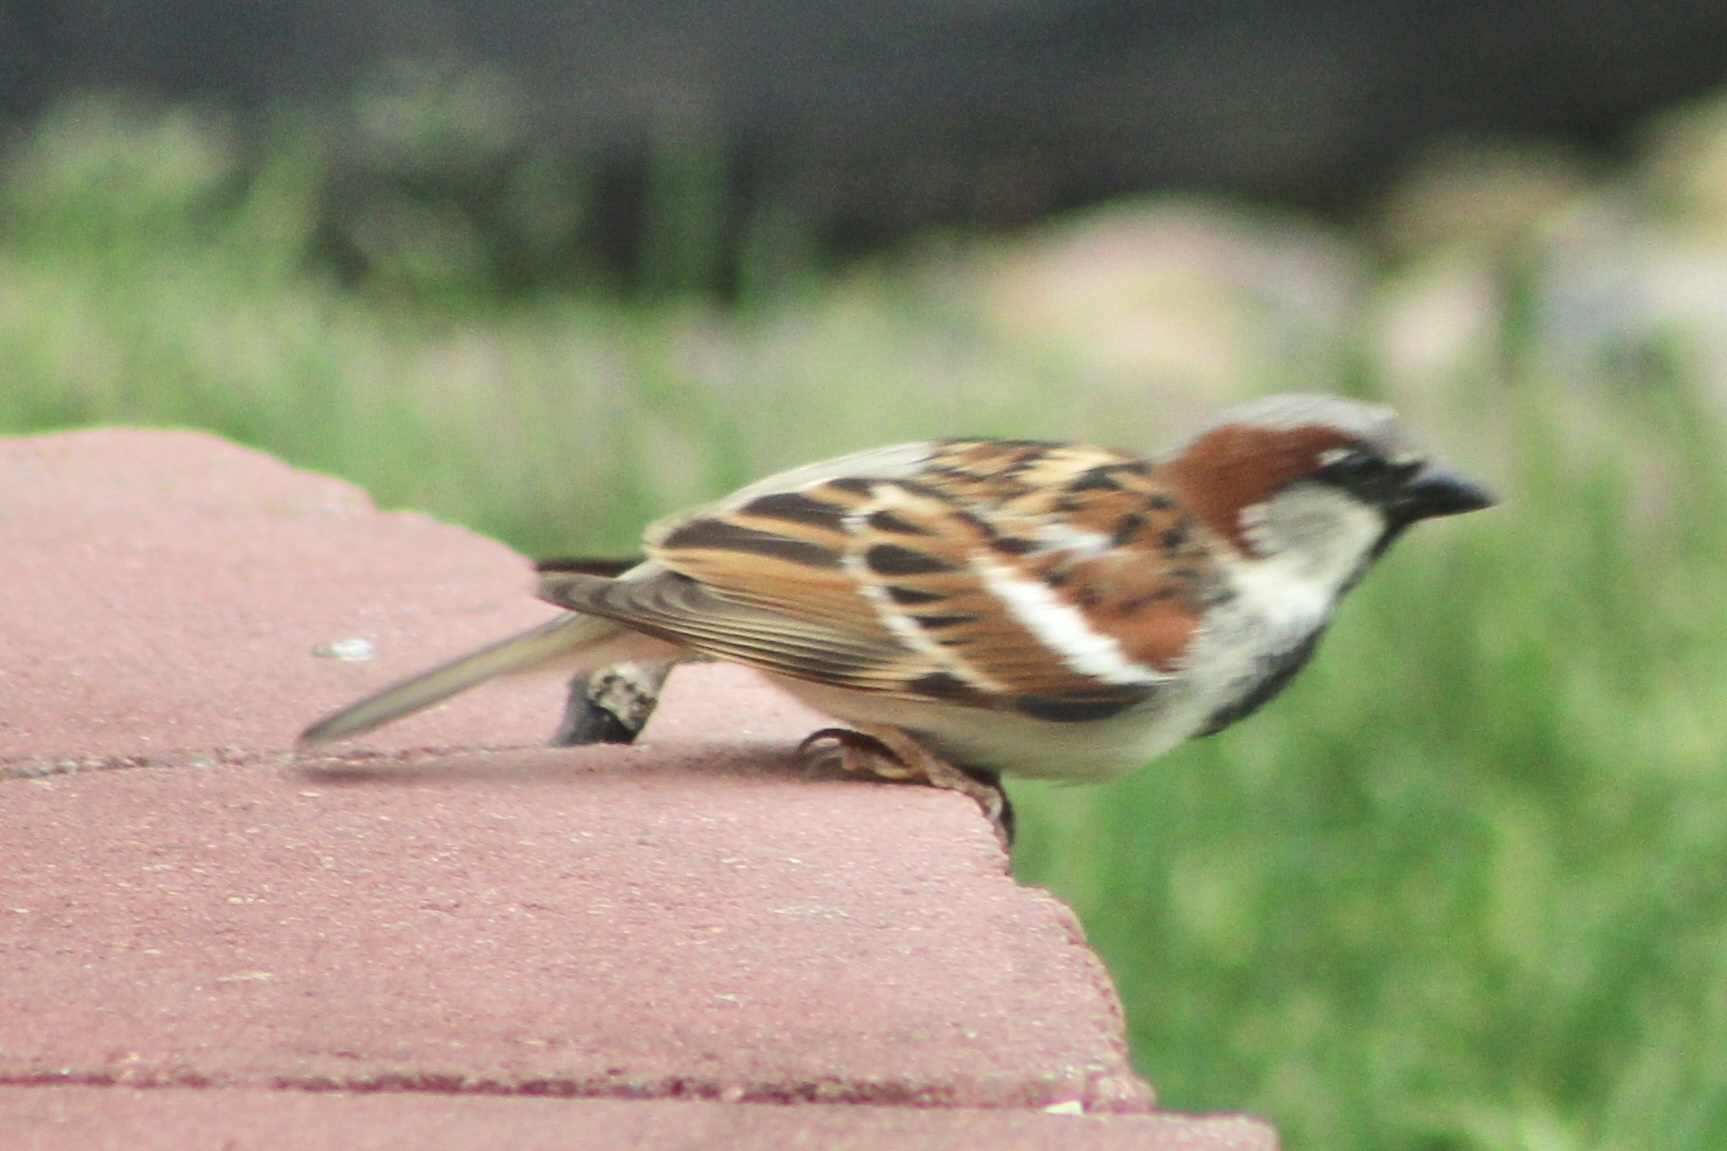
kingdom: Animalia
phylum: Chordata
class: Aves
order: Passeriformes
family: Passeridae
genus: Passer
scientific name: Passer domesticus
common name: House sparrow
